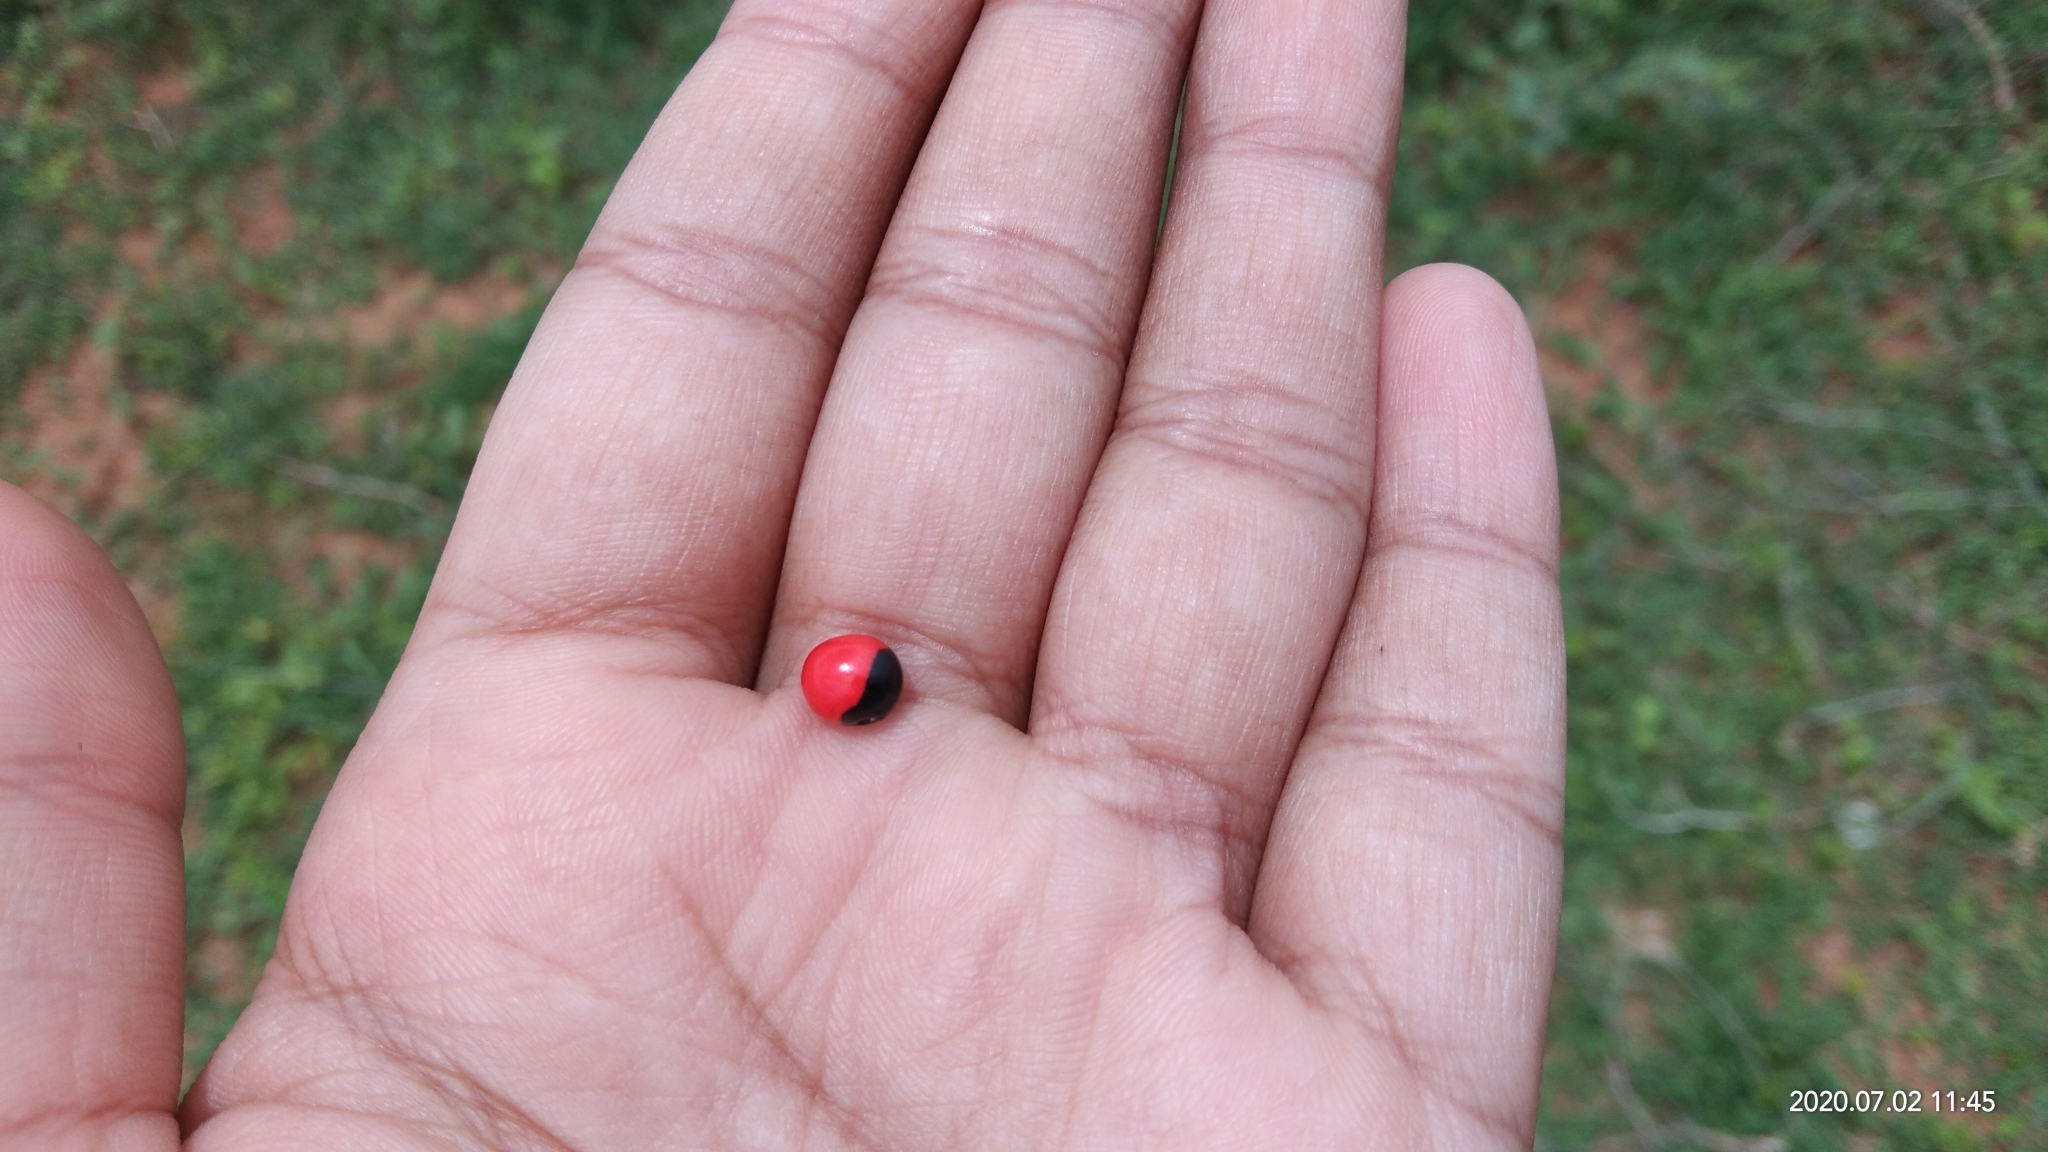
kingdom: Plantae
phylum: Tracheophyta
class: Magnoliopsida
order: Fabales
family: Fabaceae
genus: Abrus
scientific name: Abrus precatorius
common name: Rosarypea
